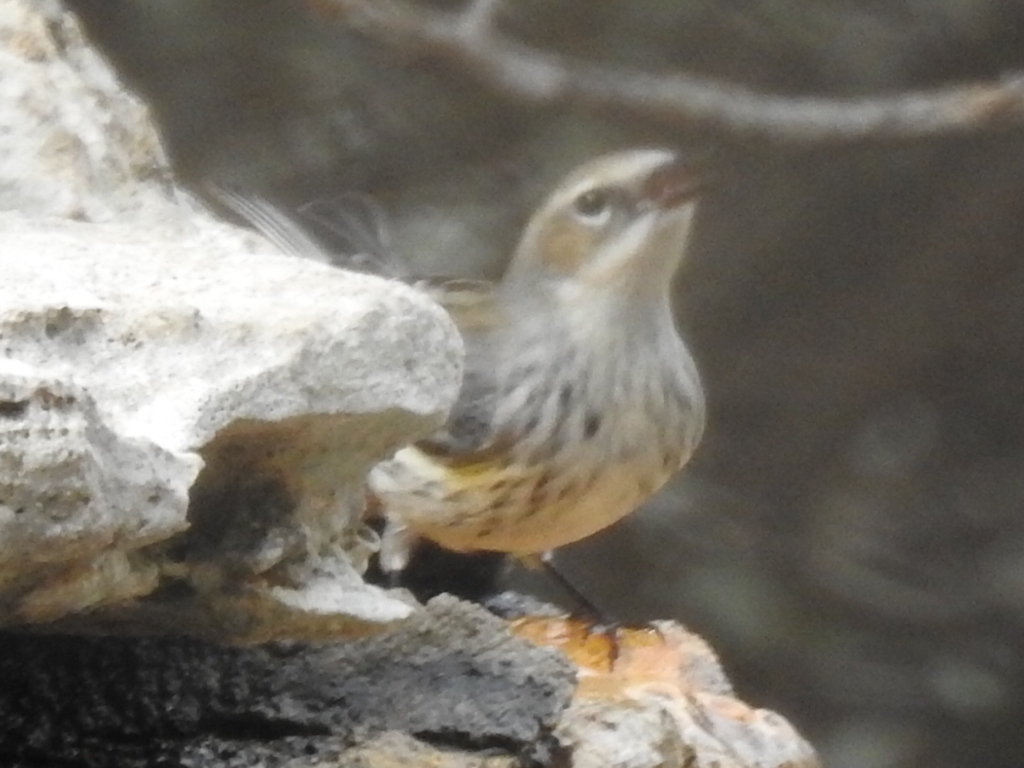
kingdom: Animalia
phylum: Chordata
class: Aves
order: Passeriformes
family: Parulidae
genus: Setophaga
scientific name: Setophaga coronata
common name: Myrtle warbler
